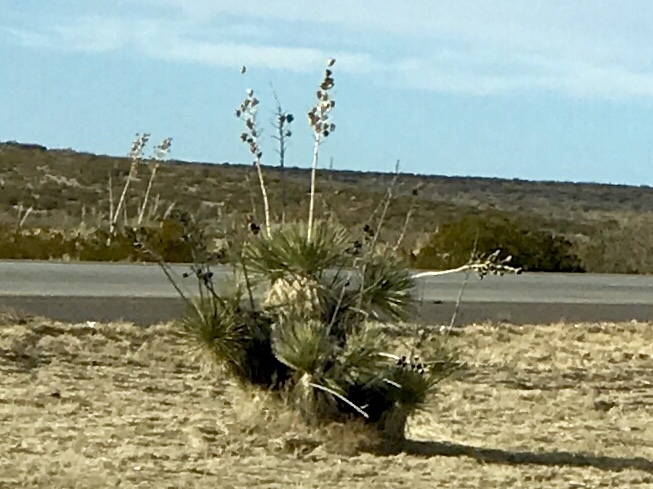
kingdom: Plantae
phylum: Tracheophyta
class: Liliopsida
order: Asparagales
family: Asparagaceae
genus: Yucca
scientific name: Yucca elata
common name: Palmella
